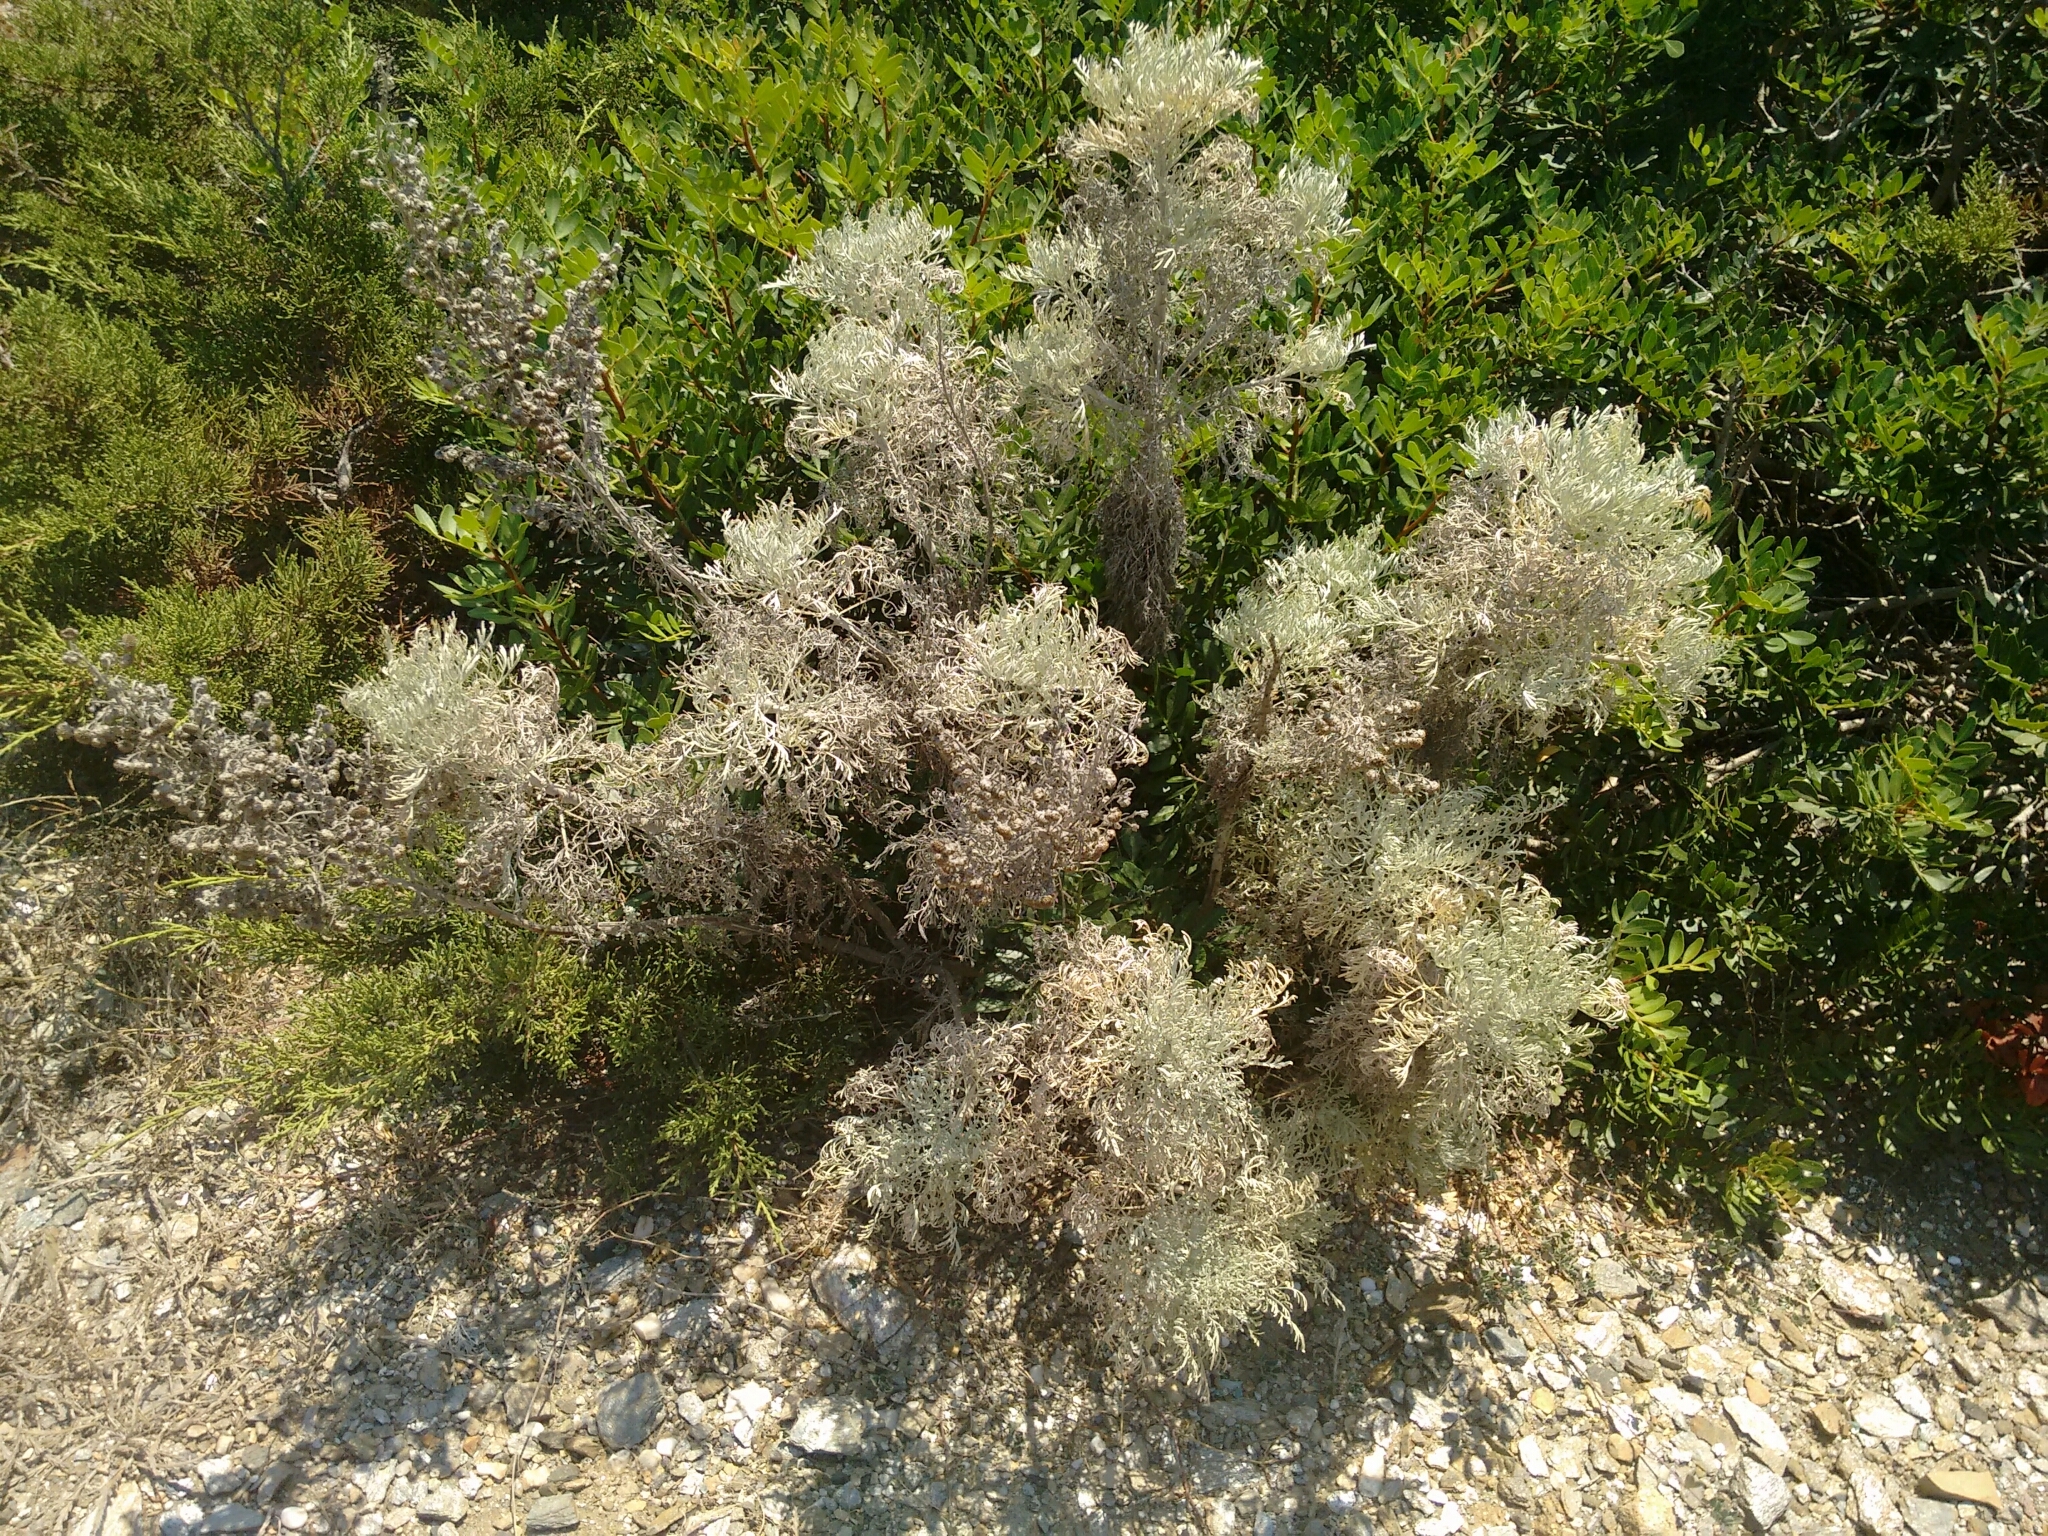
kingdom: Plantae
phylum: Tracheophyta
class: Magnoliopsida
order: Asterales
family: Asteraceae
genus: Artemisia
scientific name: Artemisia arborescens
